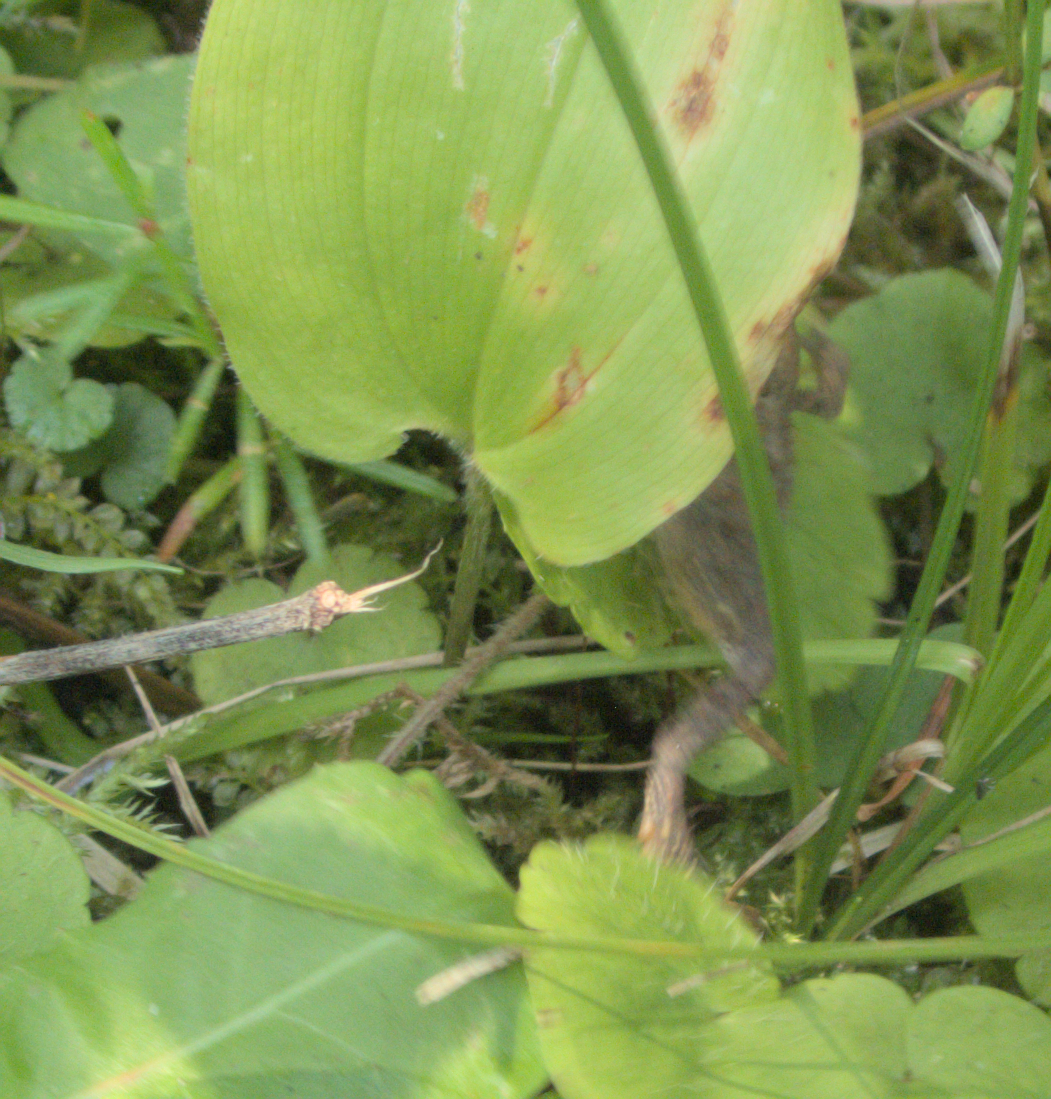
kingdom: Animalia
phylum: Chordata
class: Amphibia
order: Anura
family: Bufonidae
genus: Anaxyrus
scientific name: Anaxyrus americanus
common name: American toad
